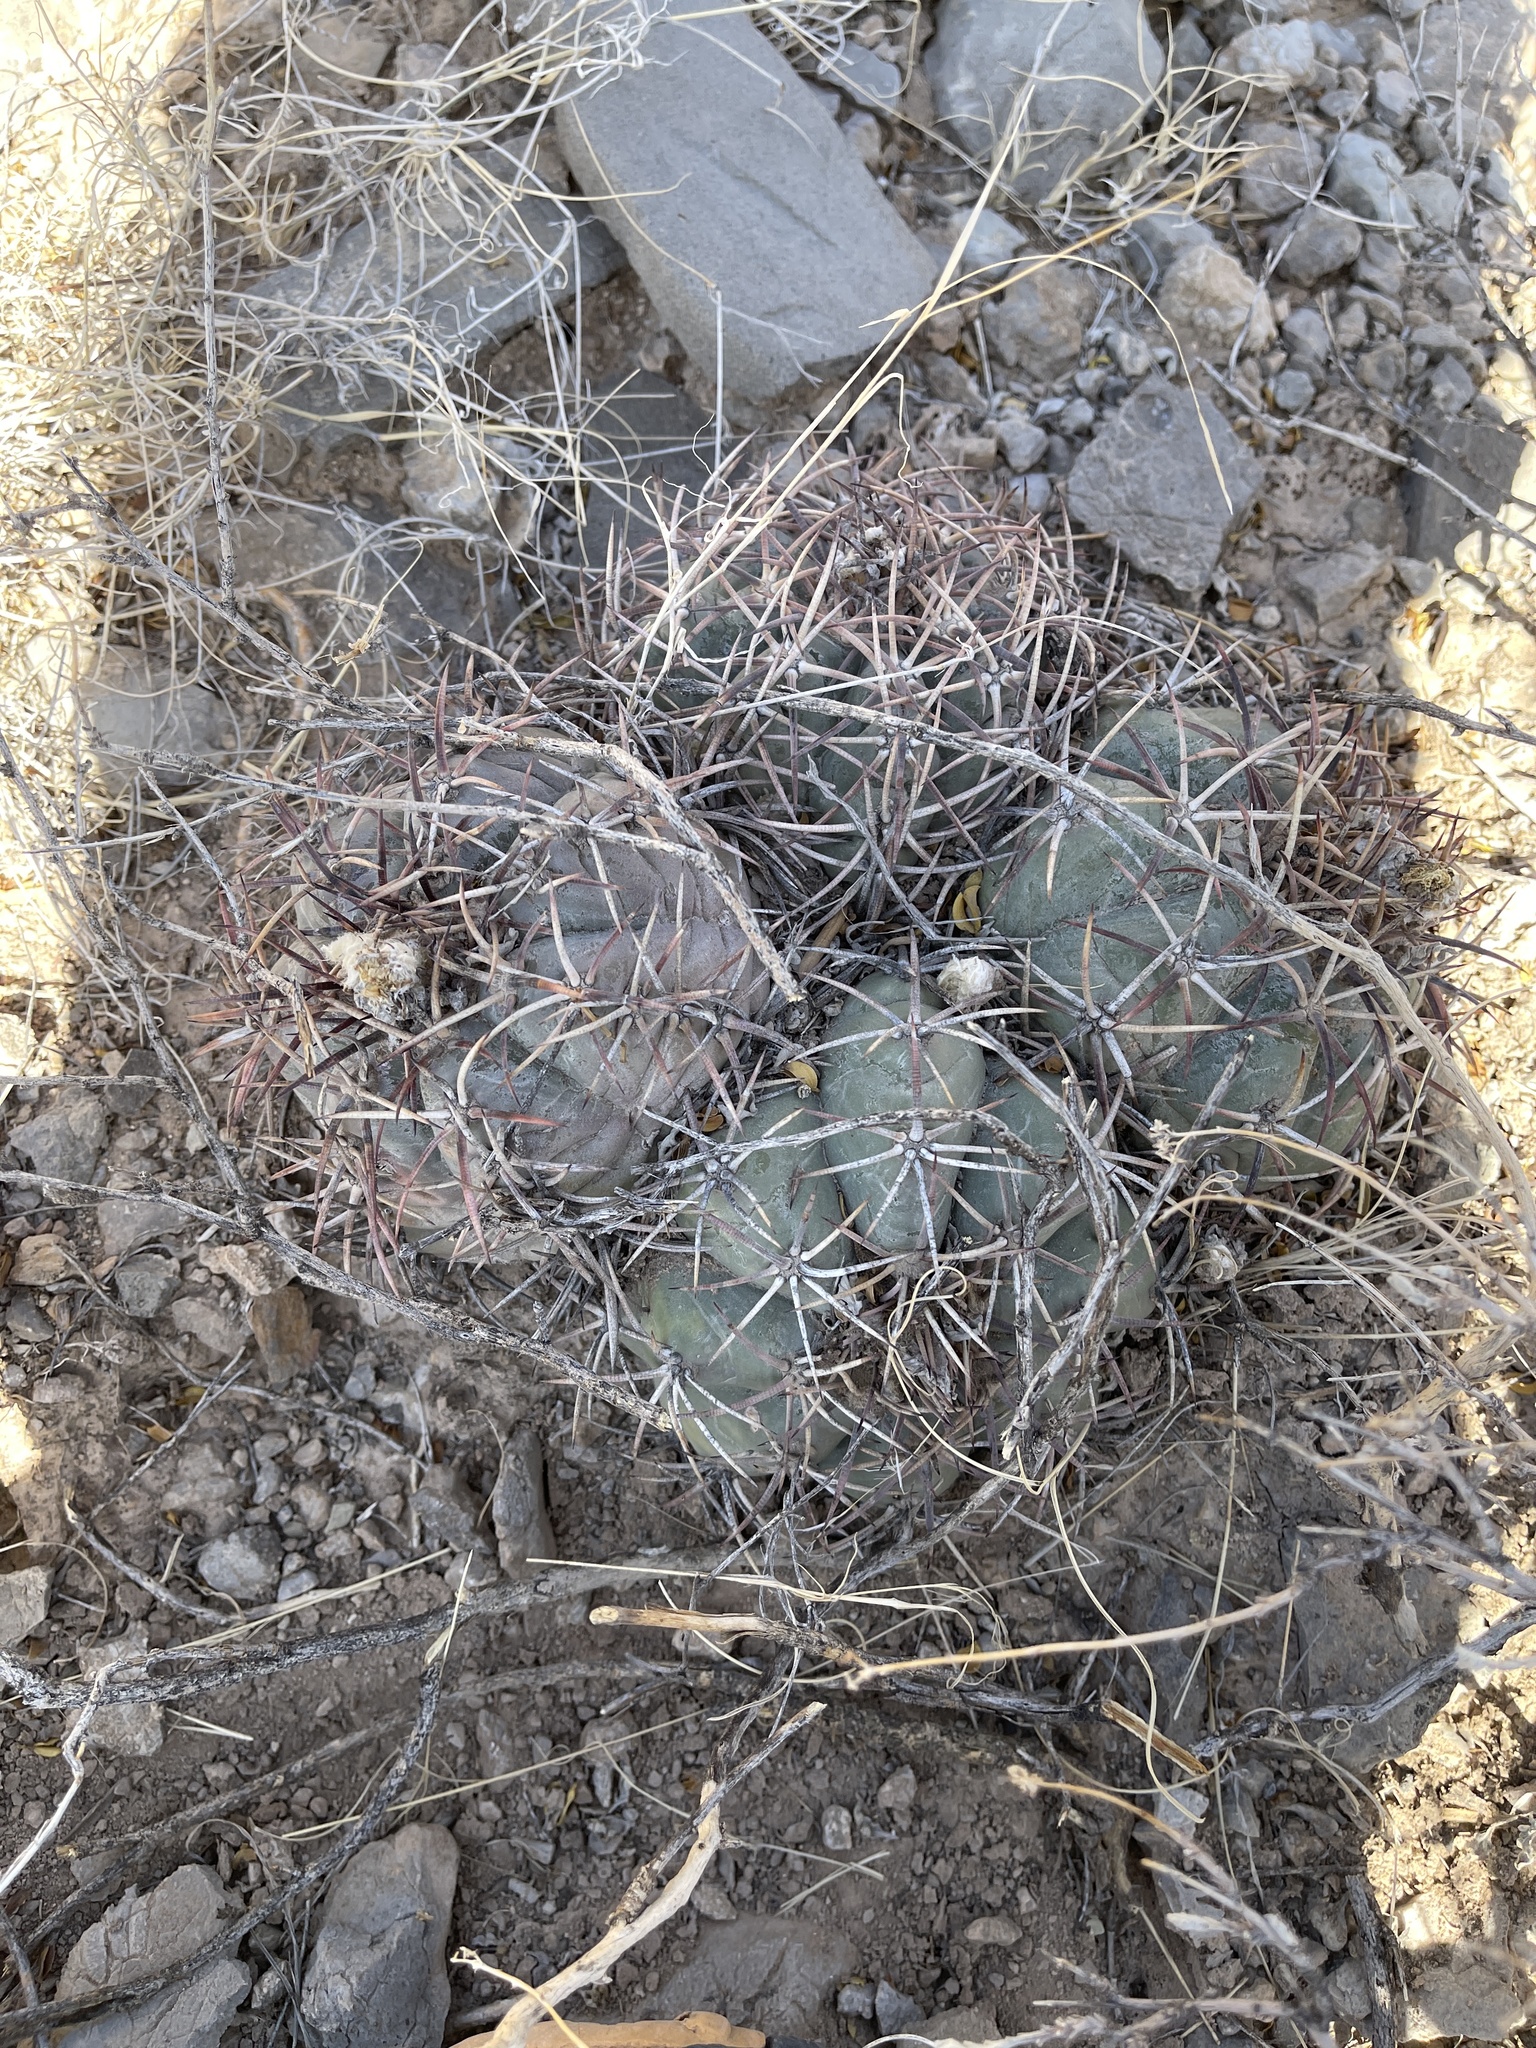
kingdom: Plantae
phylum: Tracheophyta
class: Magnoliopsida
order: Caryophyllales
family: Cactaceae
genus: Echinocactus
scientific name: Echinocactus horizonthalonius
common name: Devilshead
